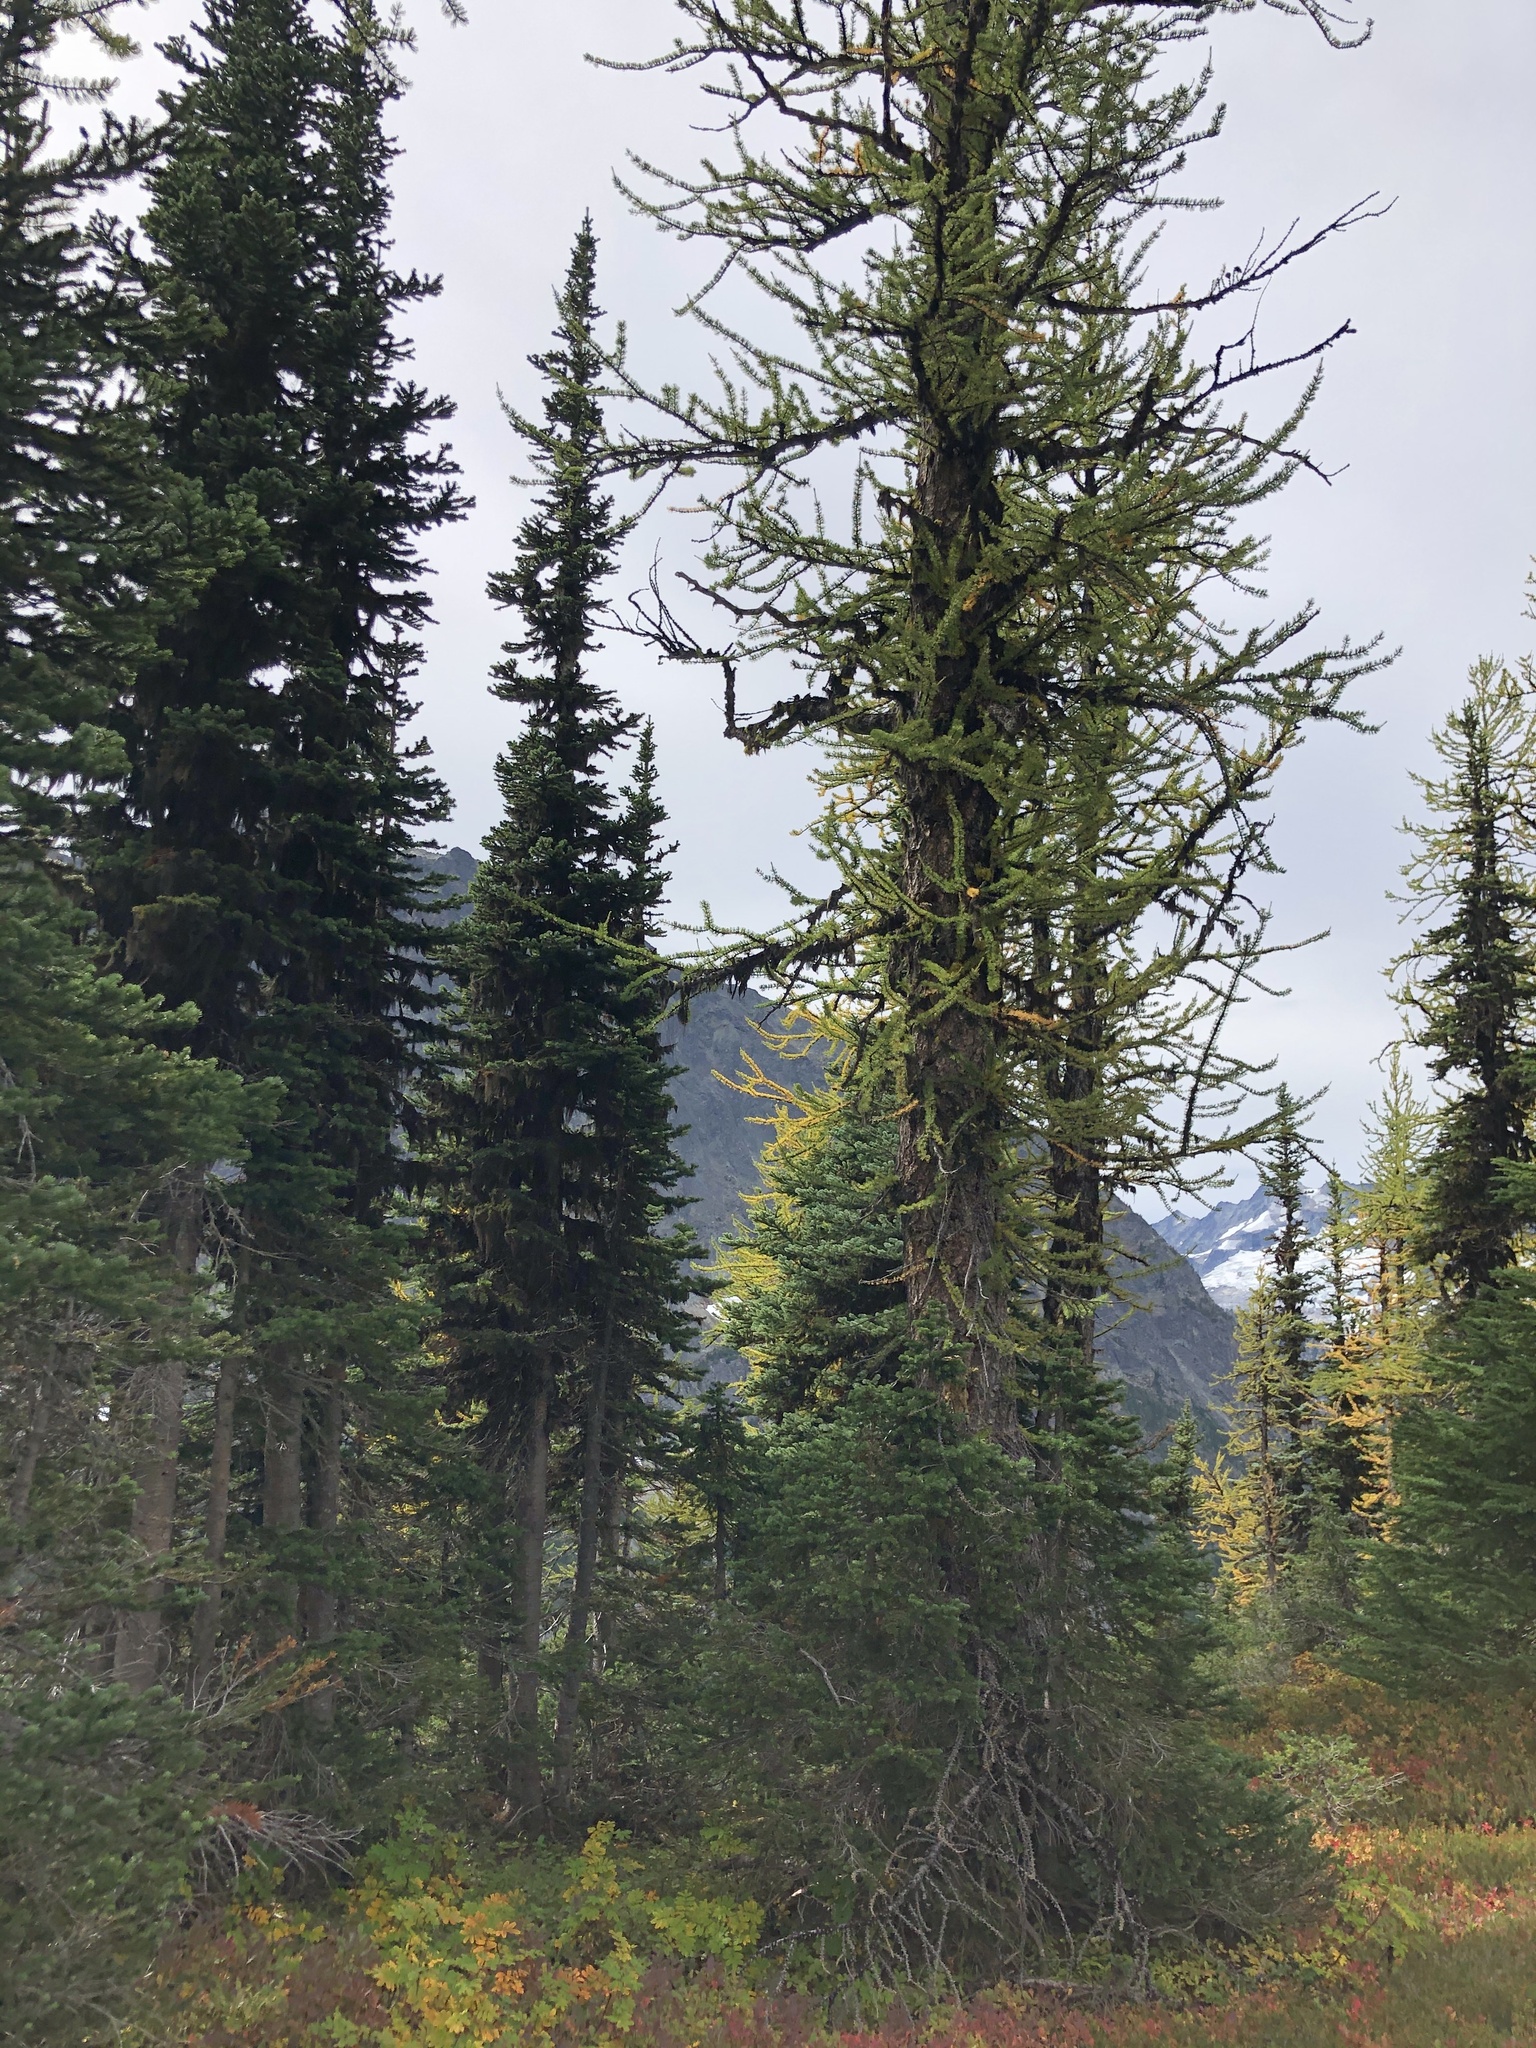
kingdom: Plantae
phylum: Tracheophyta
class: Pinopsida
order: Pinales
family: Pinaceae
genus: Larix
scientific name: Larix lyallii
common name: Alpine larch
